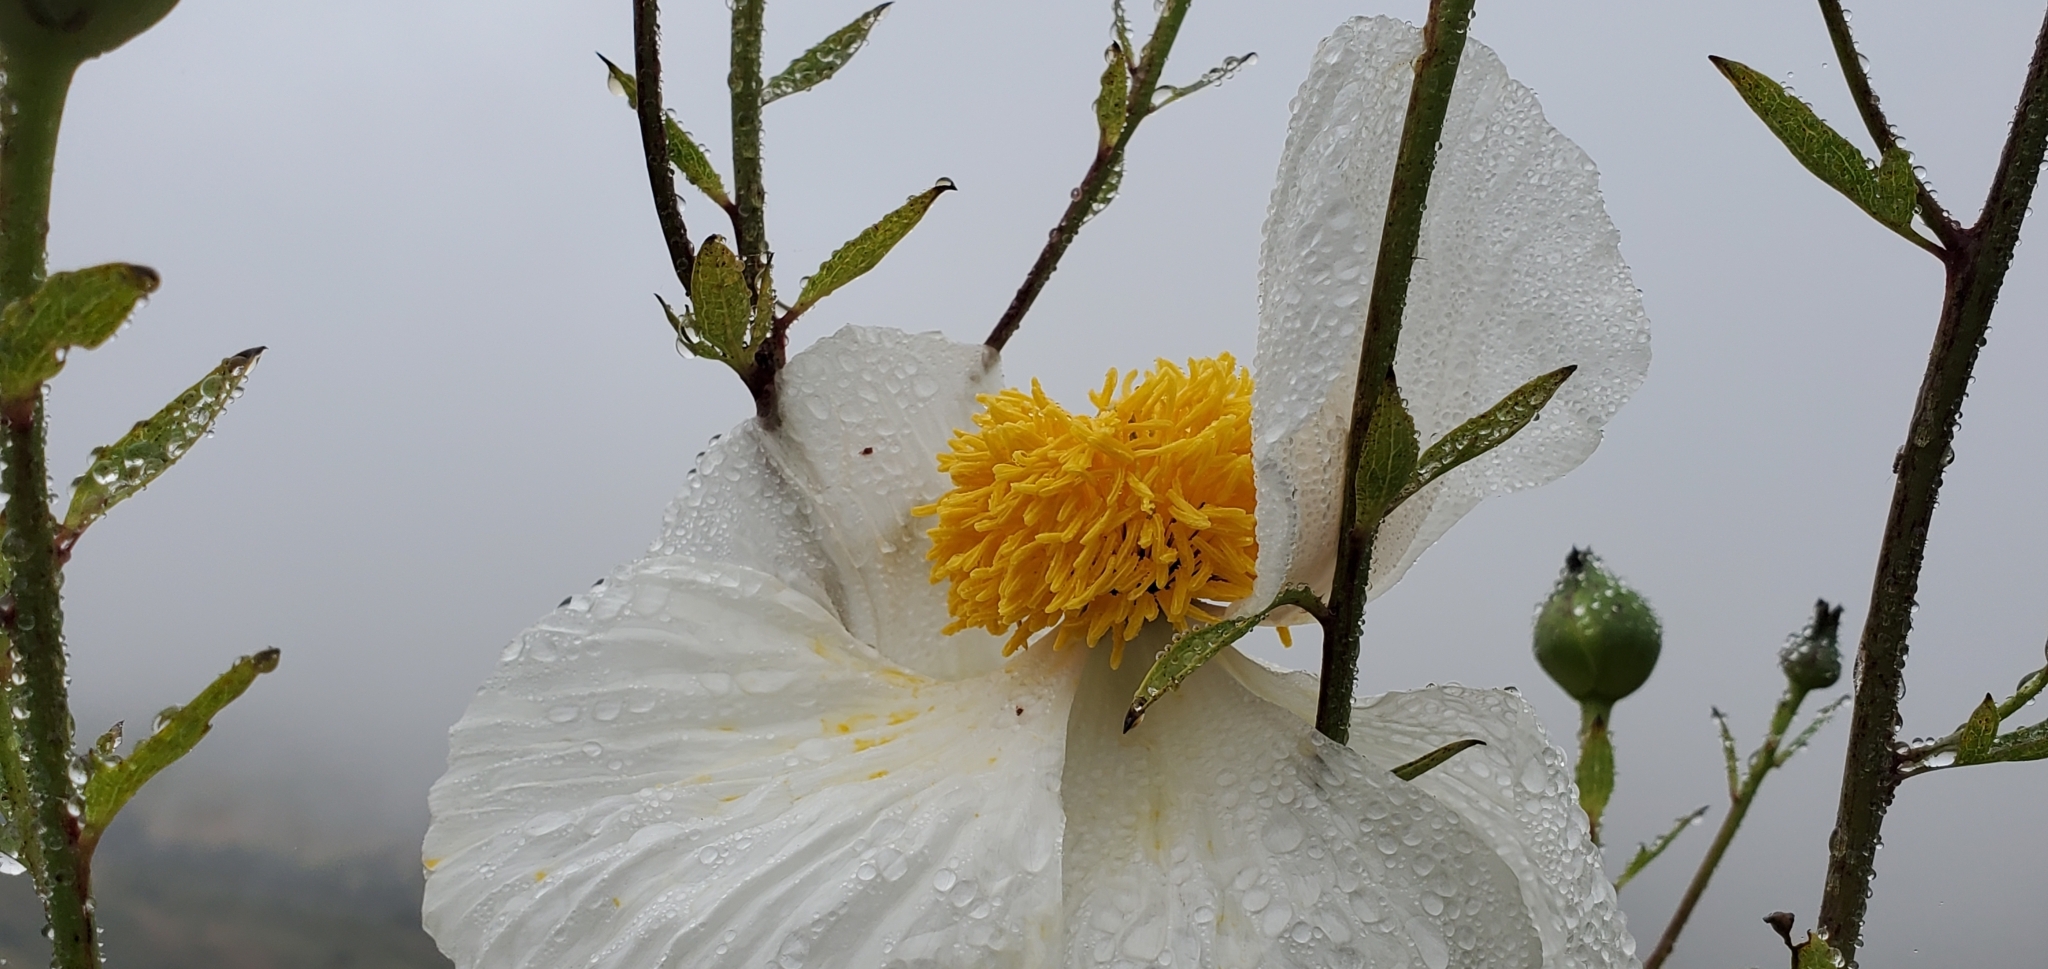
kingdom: Plantae
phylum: Tracheophyta
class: Magnoliopsida
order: Ranunculales
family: Papaveraceae
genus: Romneya
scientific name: Romneya coulteri
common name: California tree-poppy
